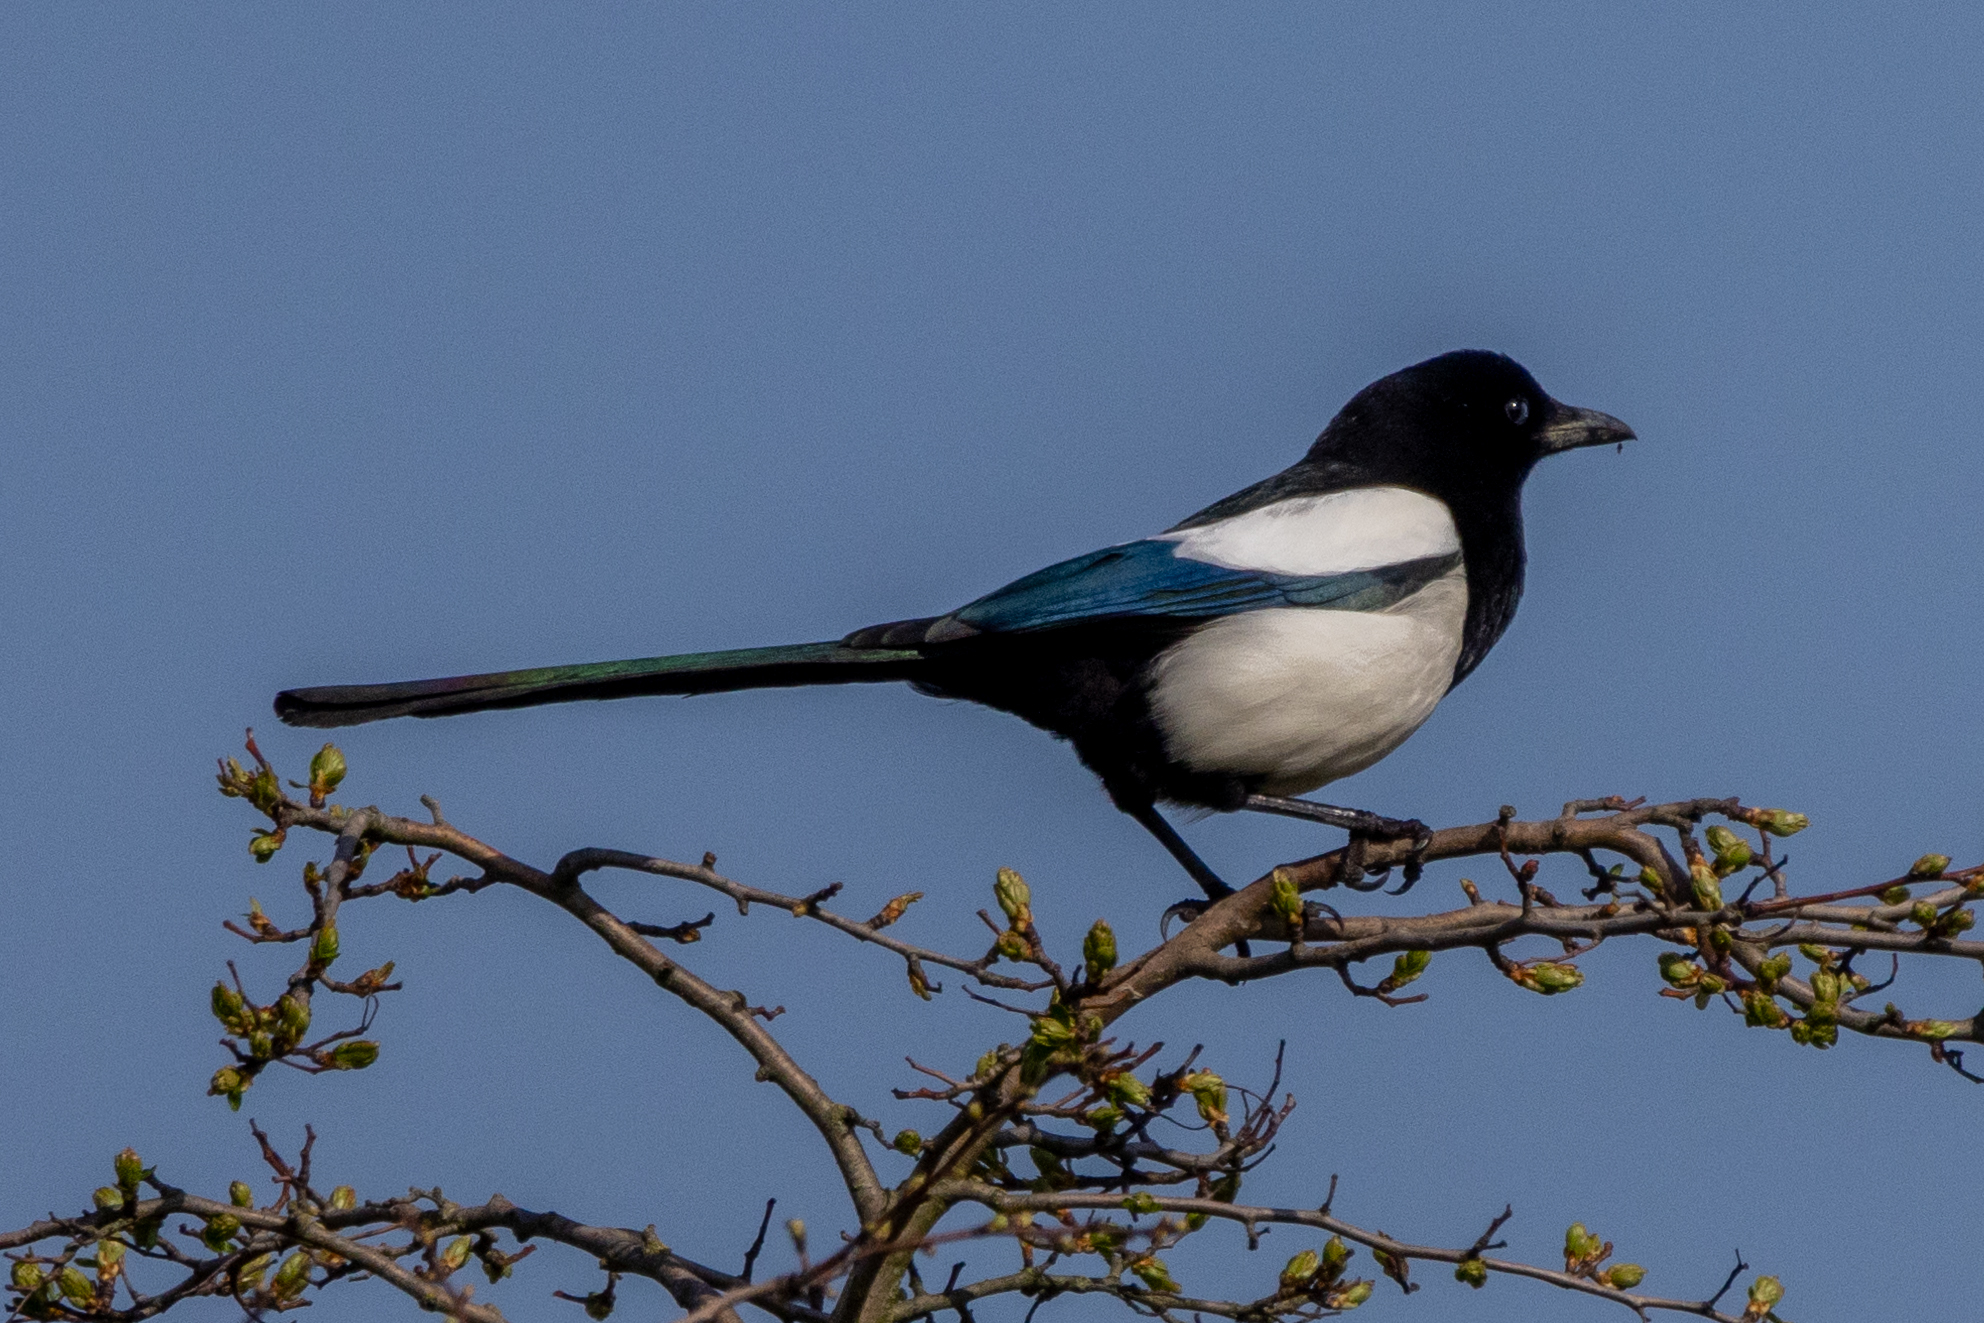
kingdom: Animalia
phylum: Chordata
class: Aves
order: Passeriformes
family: Corvidae
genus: Pica
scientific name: Pica pica
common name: Eurasian magpie
